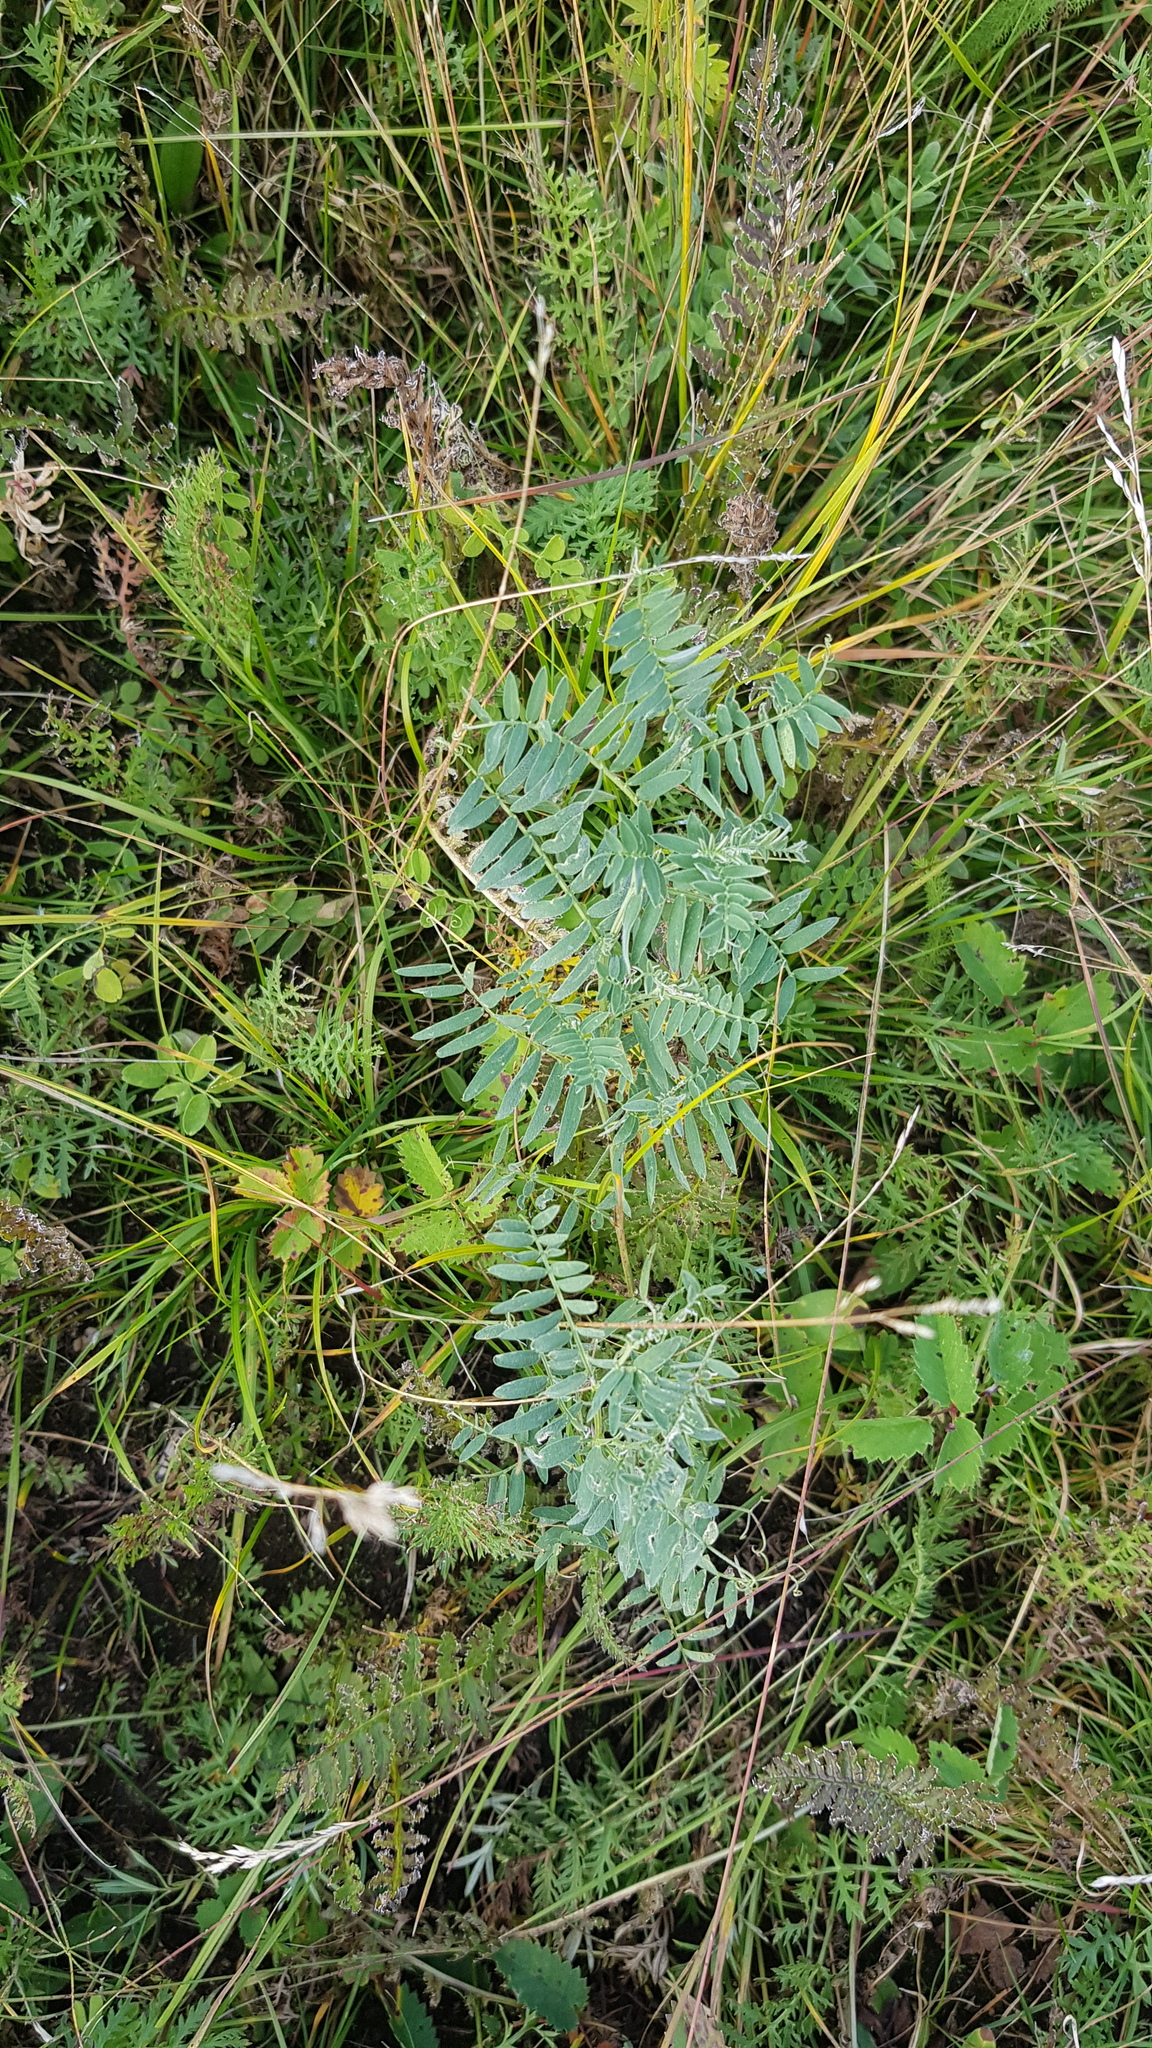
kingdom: Plantae
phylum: Tracheophyta
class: Magnoliopsida
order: Fabales
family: Fabaceae
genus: Vicia
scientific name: Vicia cracca
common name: Bird vetch
